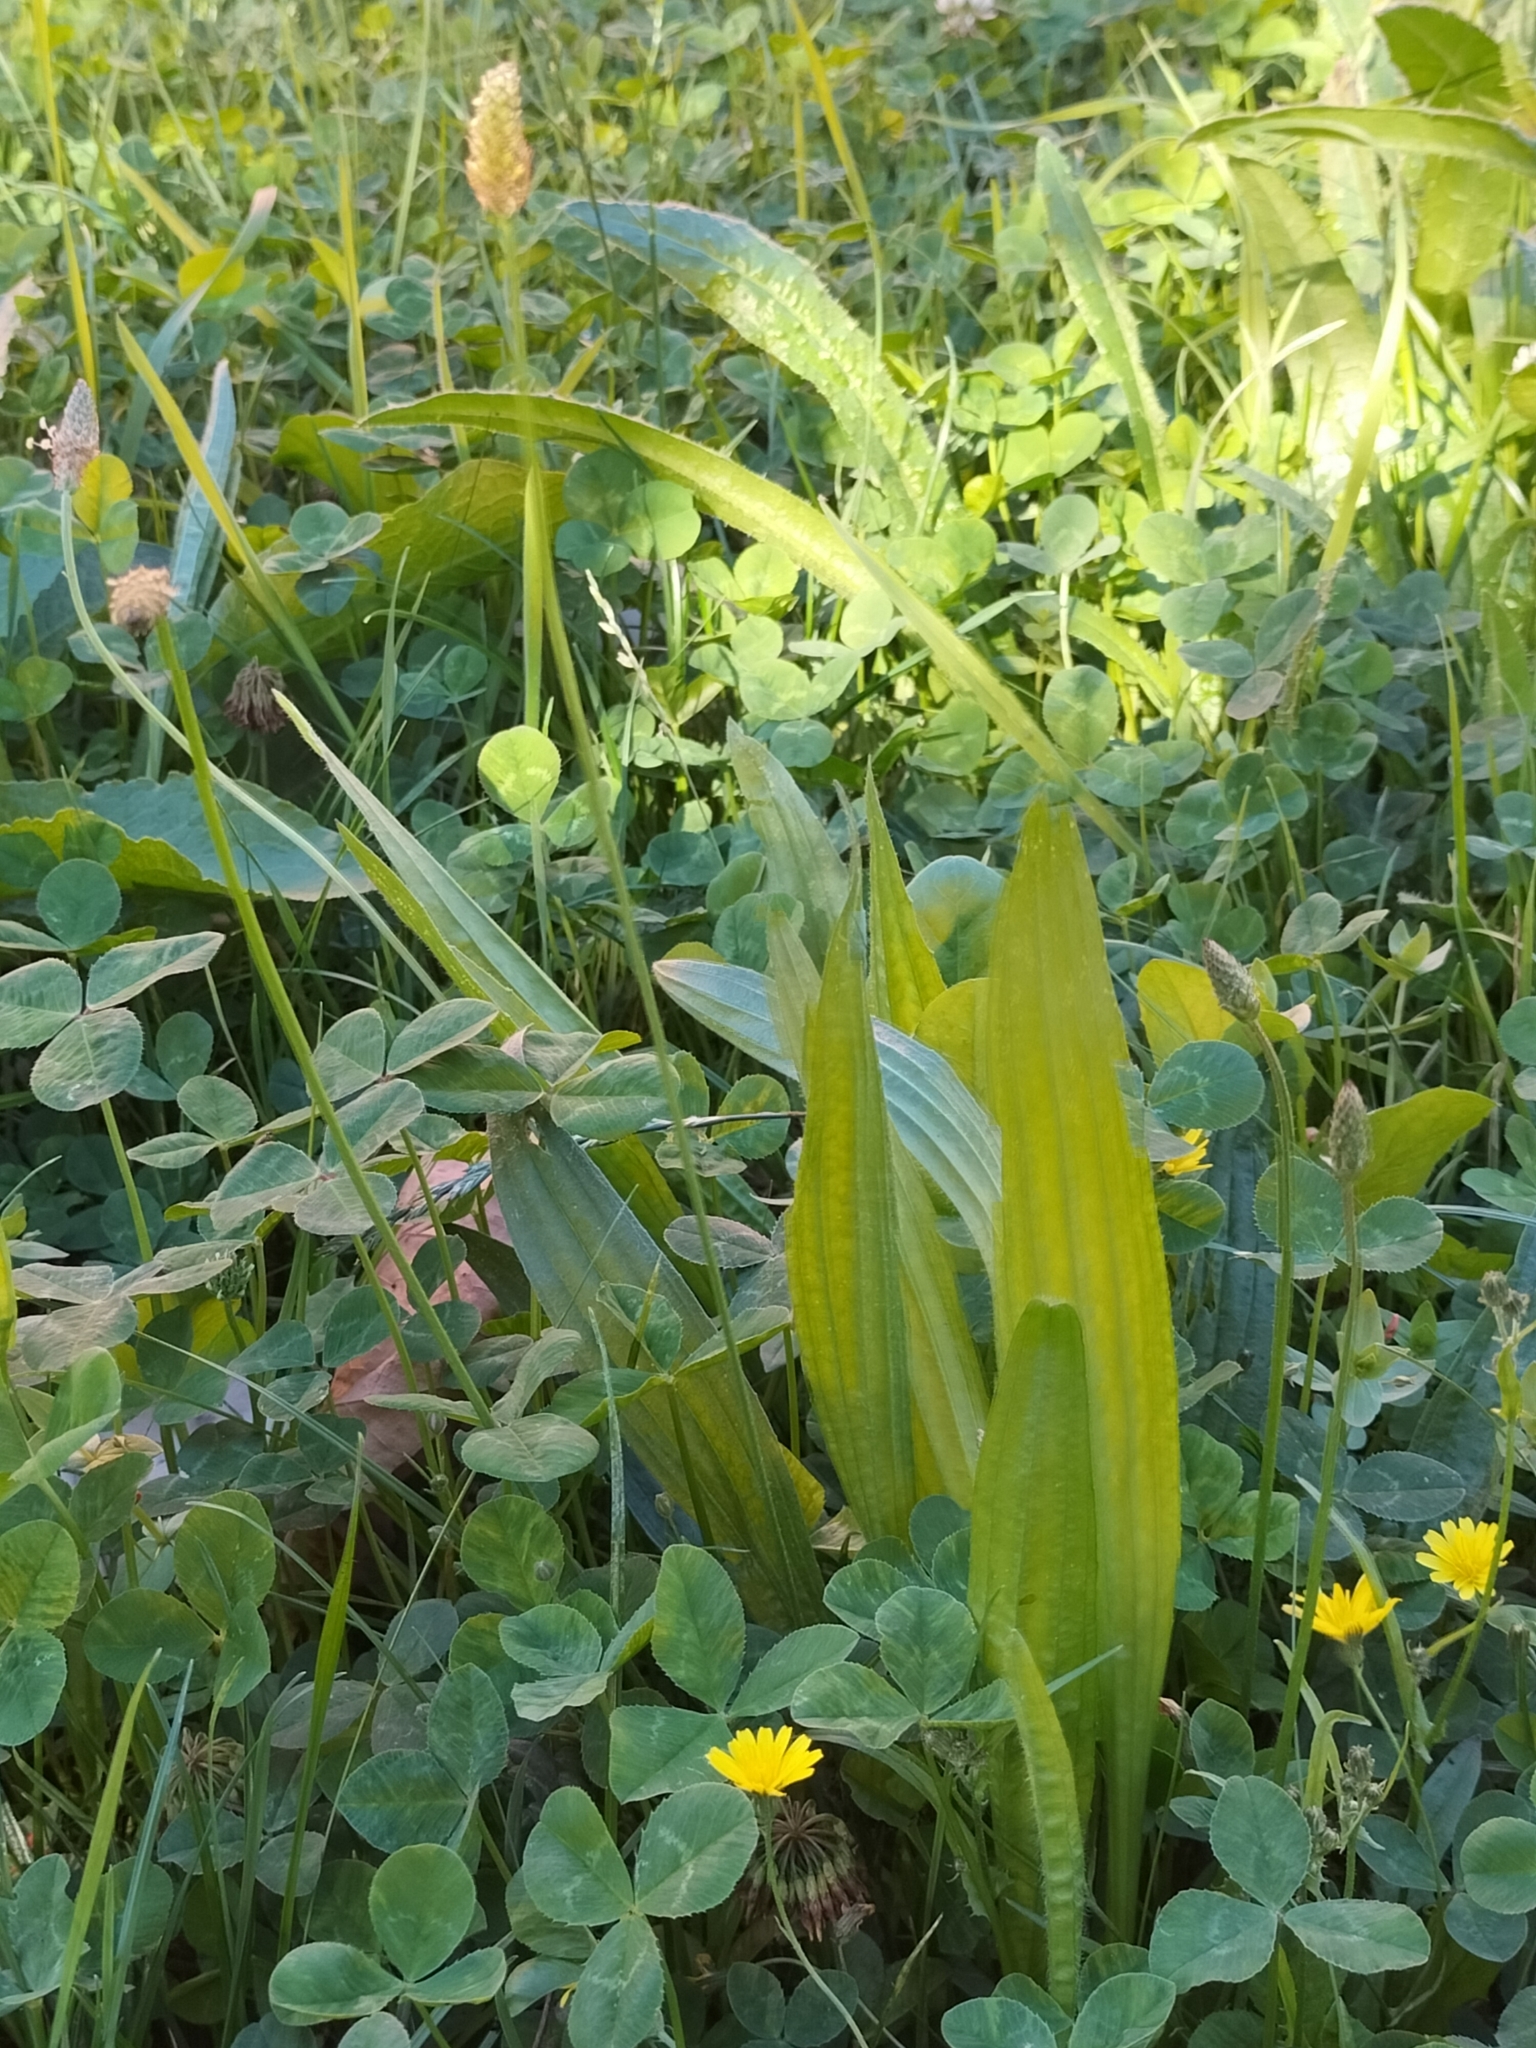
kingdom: Plantae
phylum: Tracheophyta
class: Magnoliopsida
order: Lamiales
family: Plantaginaceae
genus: Plantago
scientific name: Plantago lanceolata
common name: Ribwort plantain
